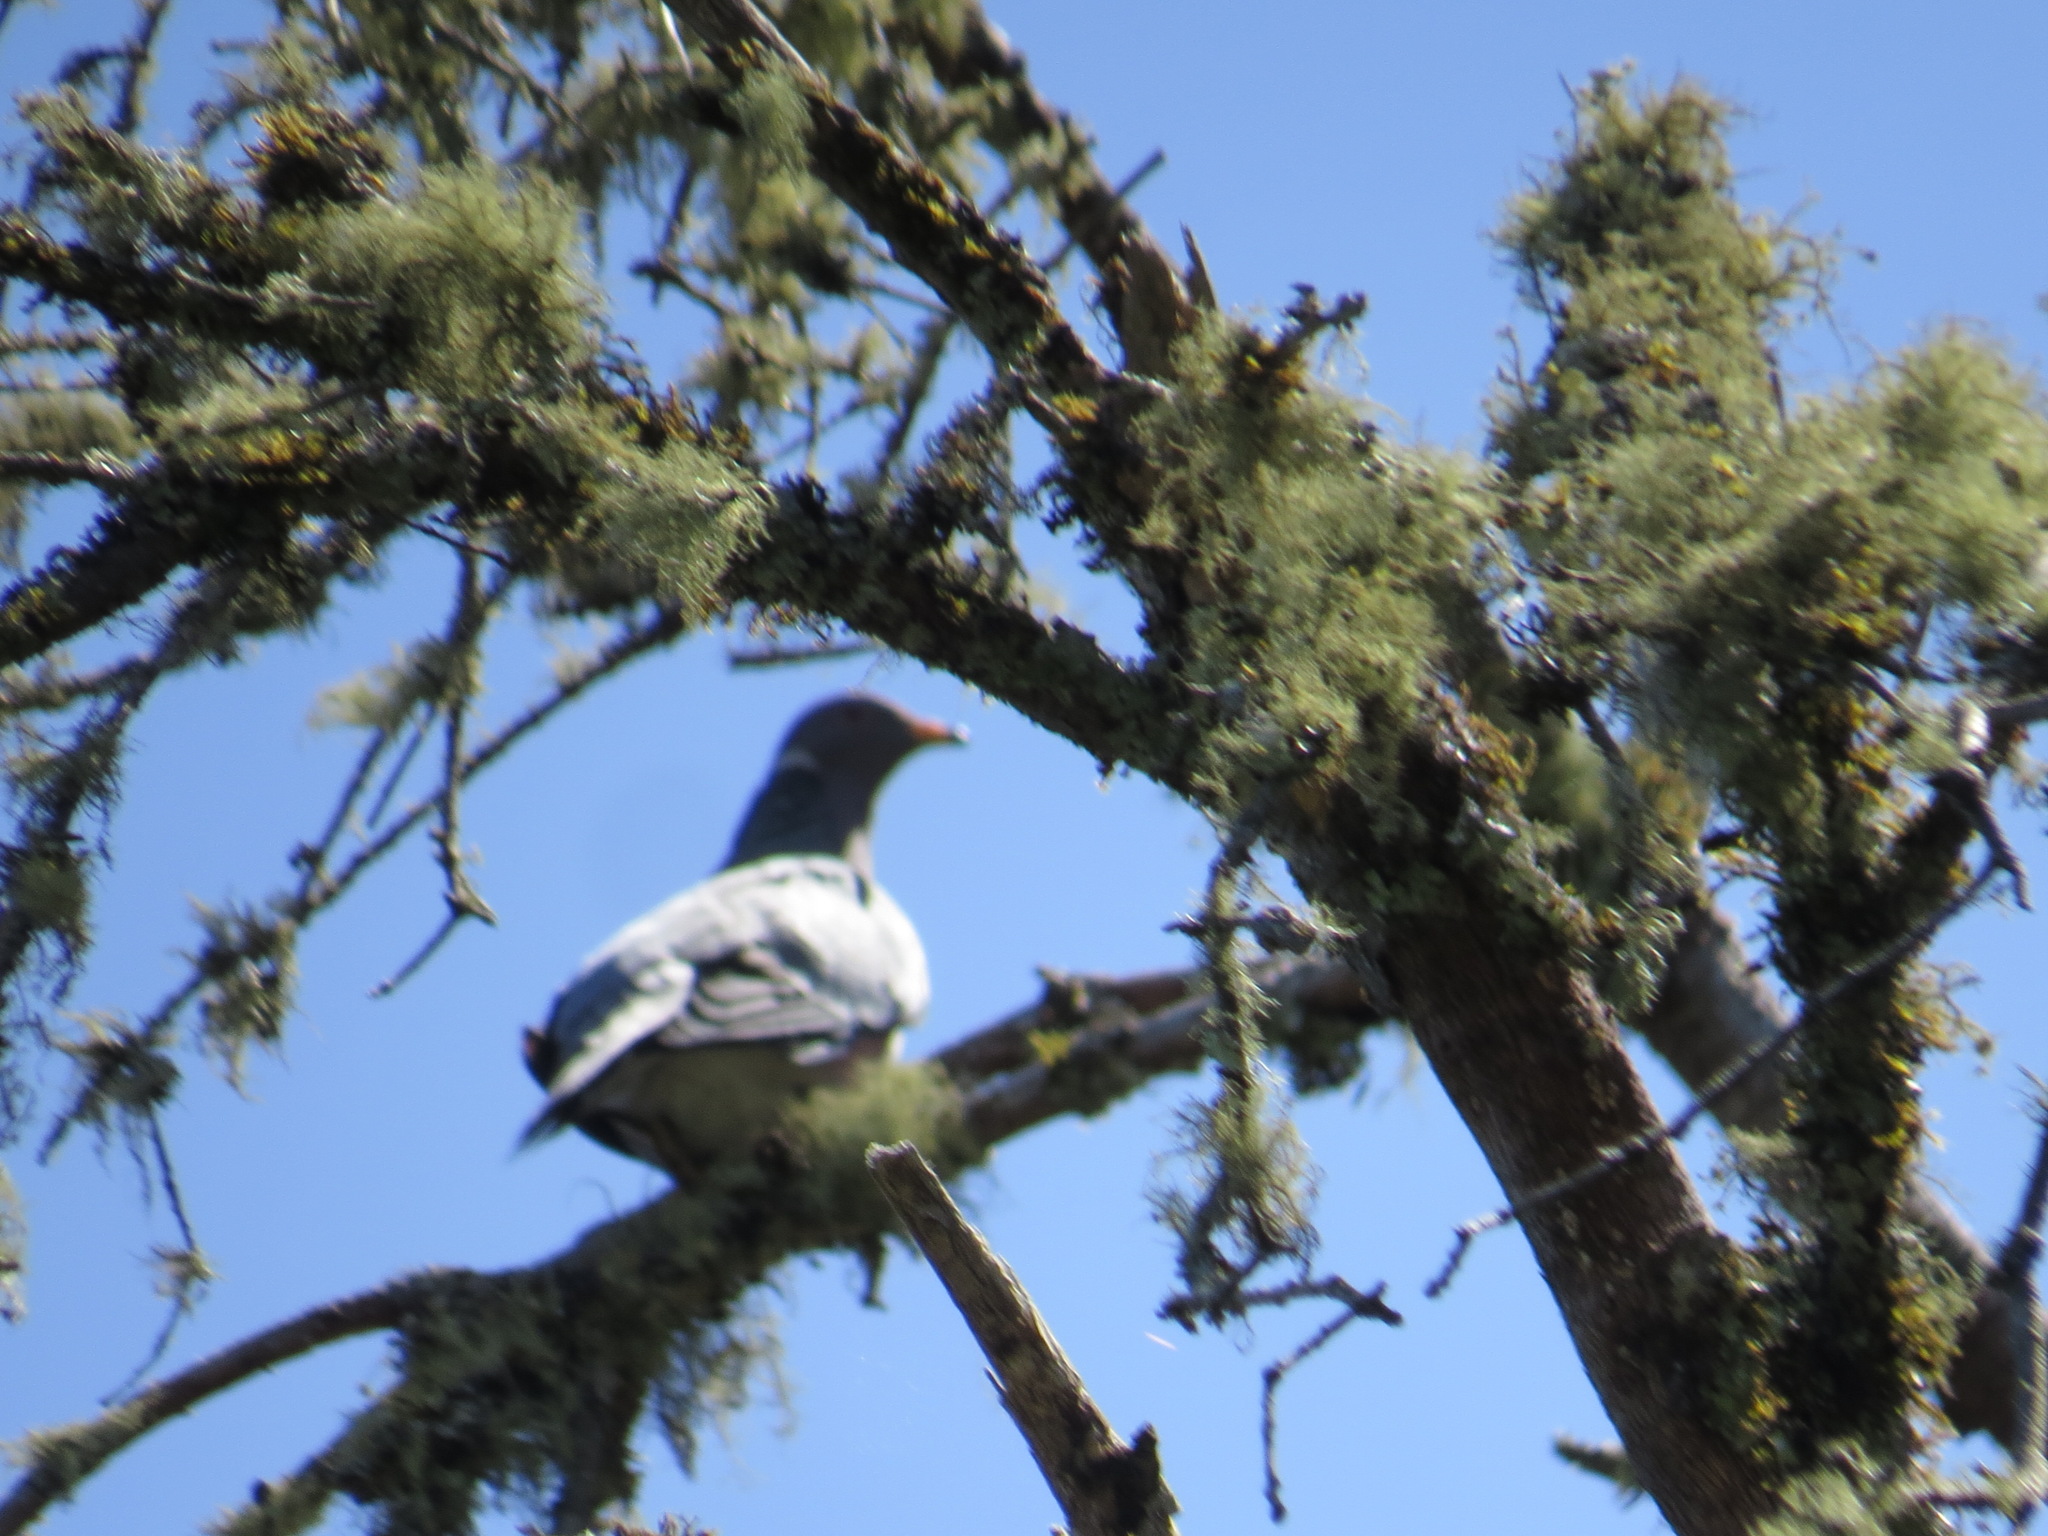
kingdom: Animalia
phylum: Chordata
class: Aves
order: Columbiformes
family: Columbidae
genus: Patagioenas
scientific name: Patagioenas fasciata
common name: Band-tailed pigeon
